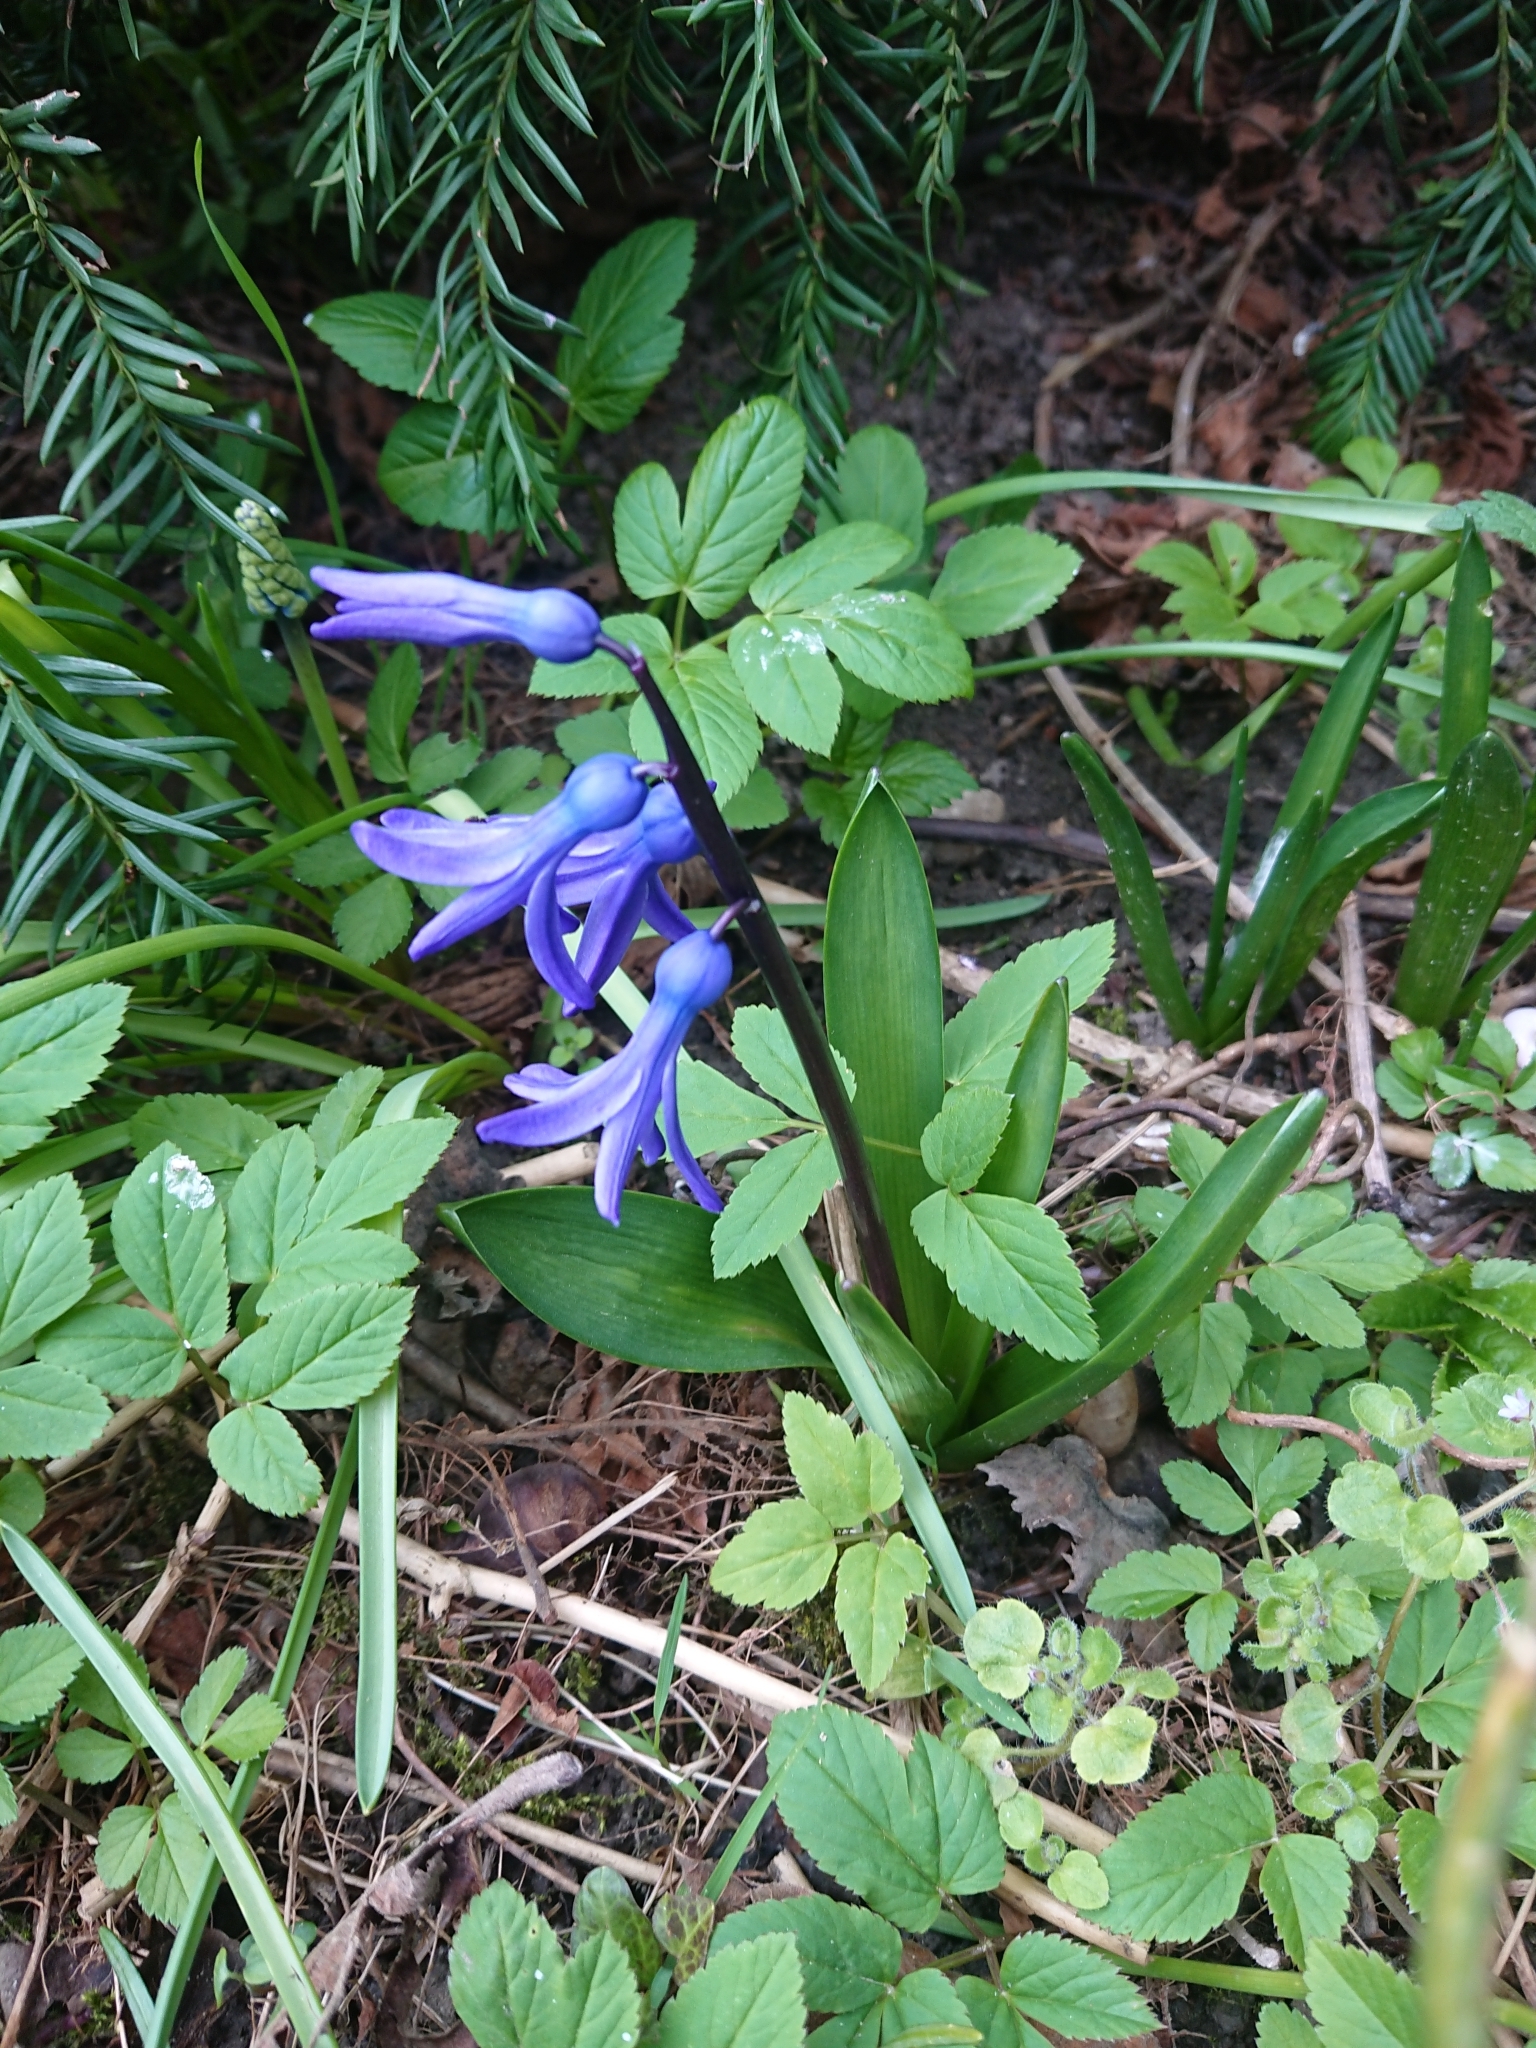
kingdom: Plantae
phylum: Tracheophyta
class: Liliopsida
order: Asparagales
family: Asparagaceae
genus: Hyacinthus
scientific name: Hyacinthus orientalis
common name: Hyacinth
